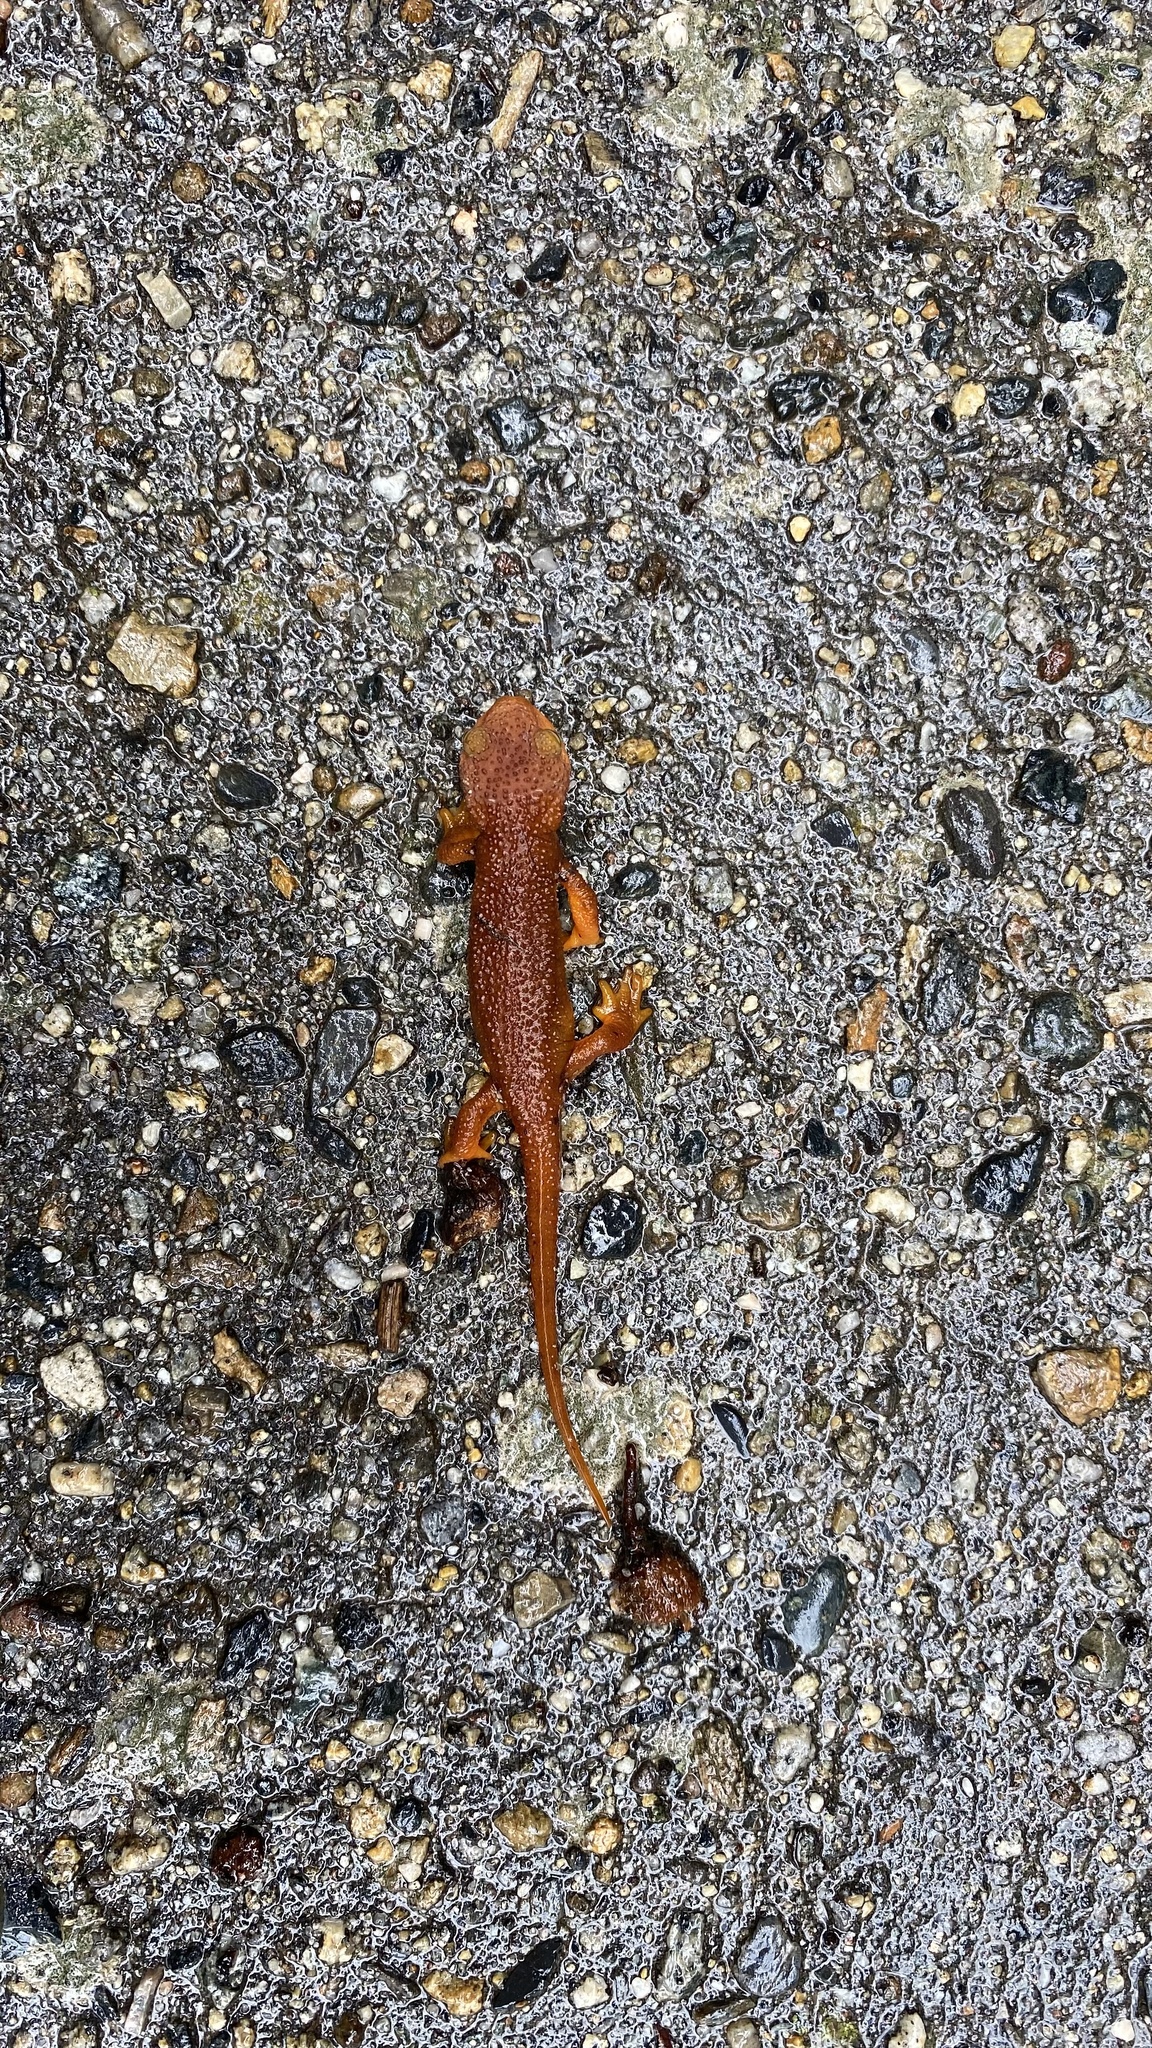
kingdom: Animalia
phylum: Chordata
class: Amphibia
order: Caudata
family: Salamandridae
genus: Taricha
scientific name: Taricha torosa
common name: California newt
